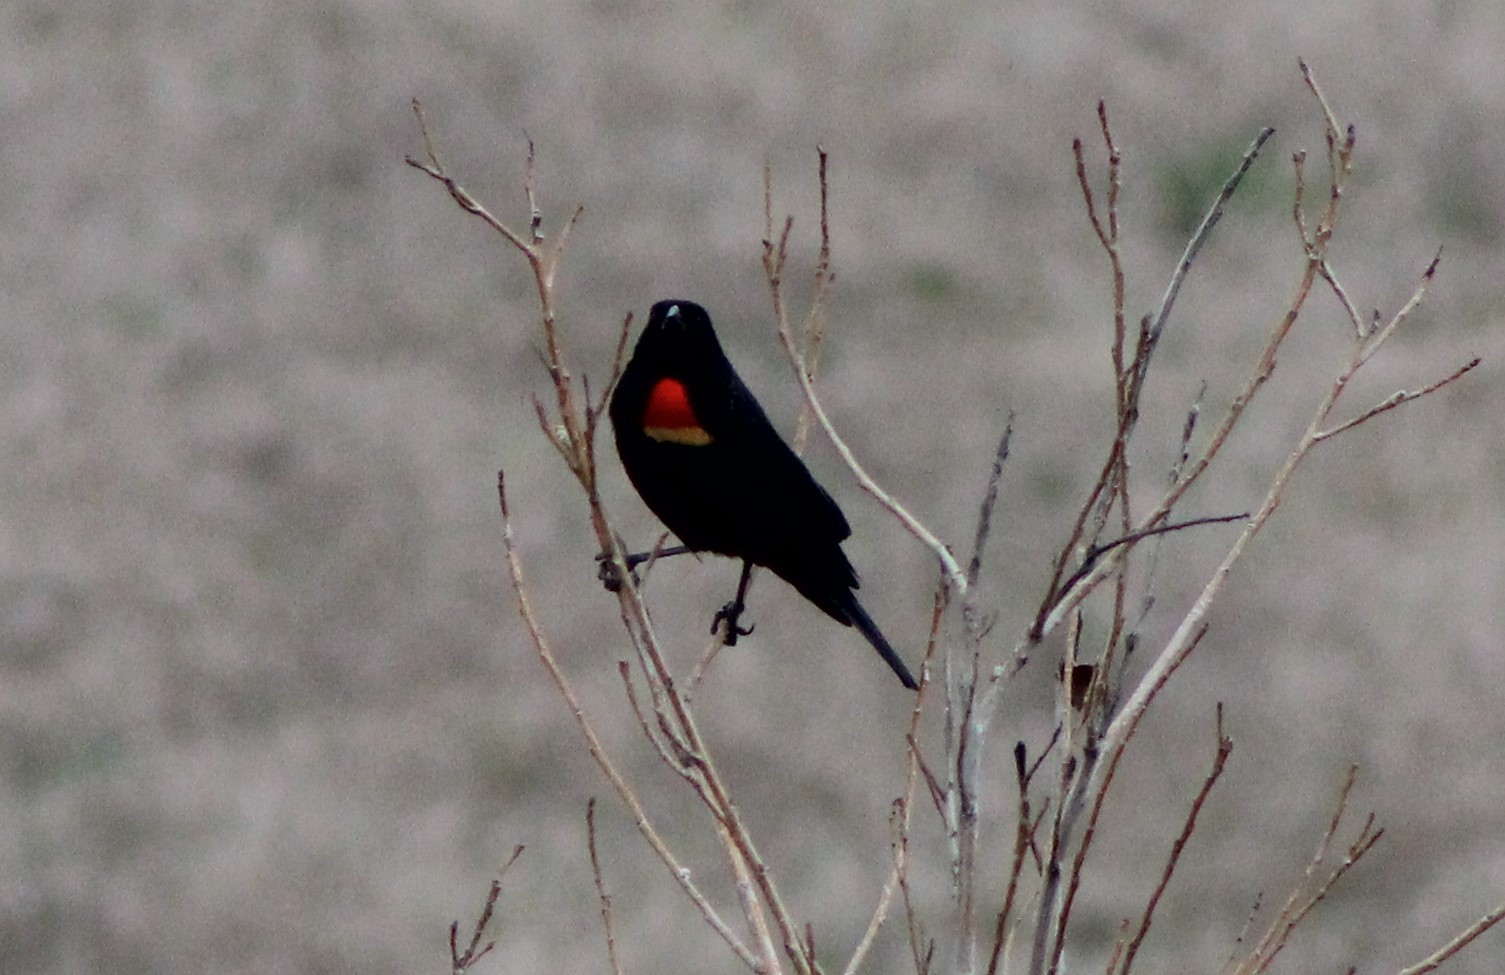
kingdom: Animalia
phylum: Chordata
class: Aves
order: Passeriformes
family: Icteridae
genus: Agelaius
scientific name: Agelaius phoeniceus
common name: Red-winged blackbird
